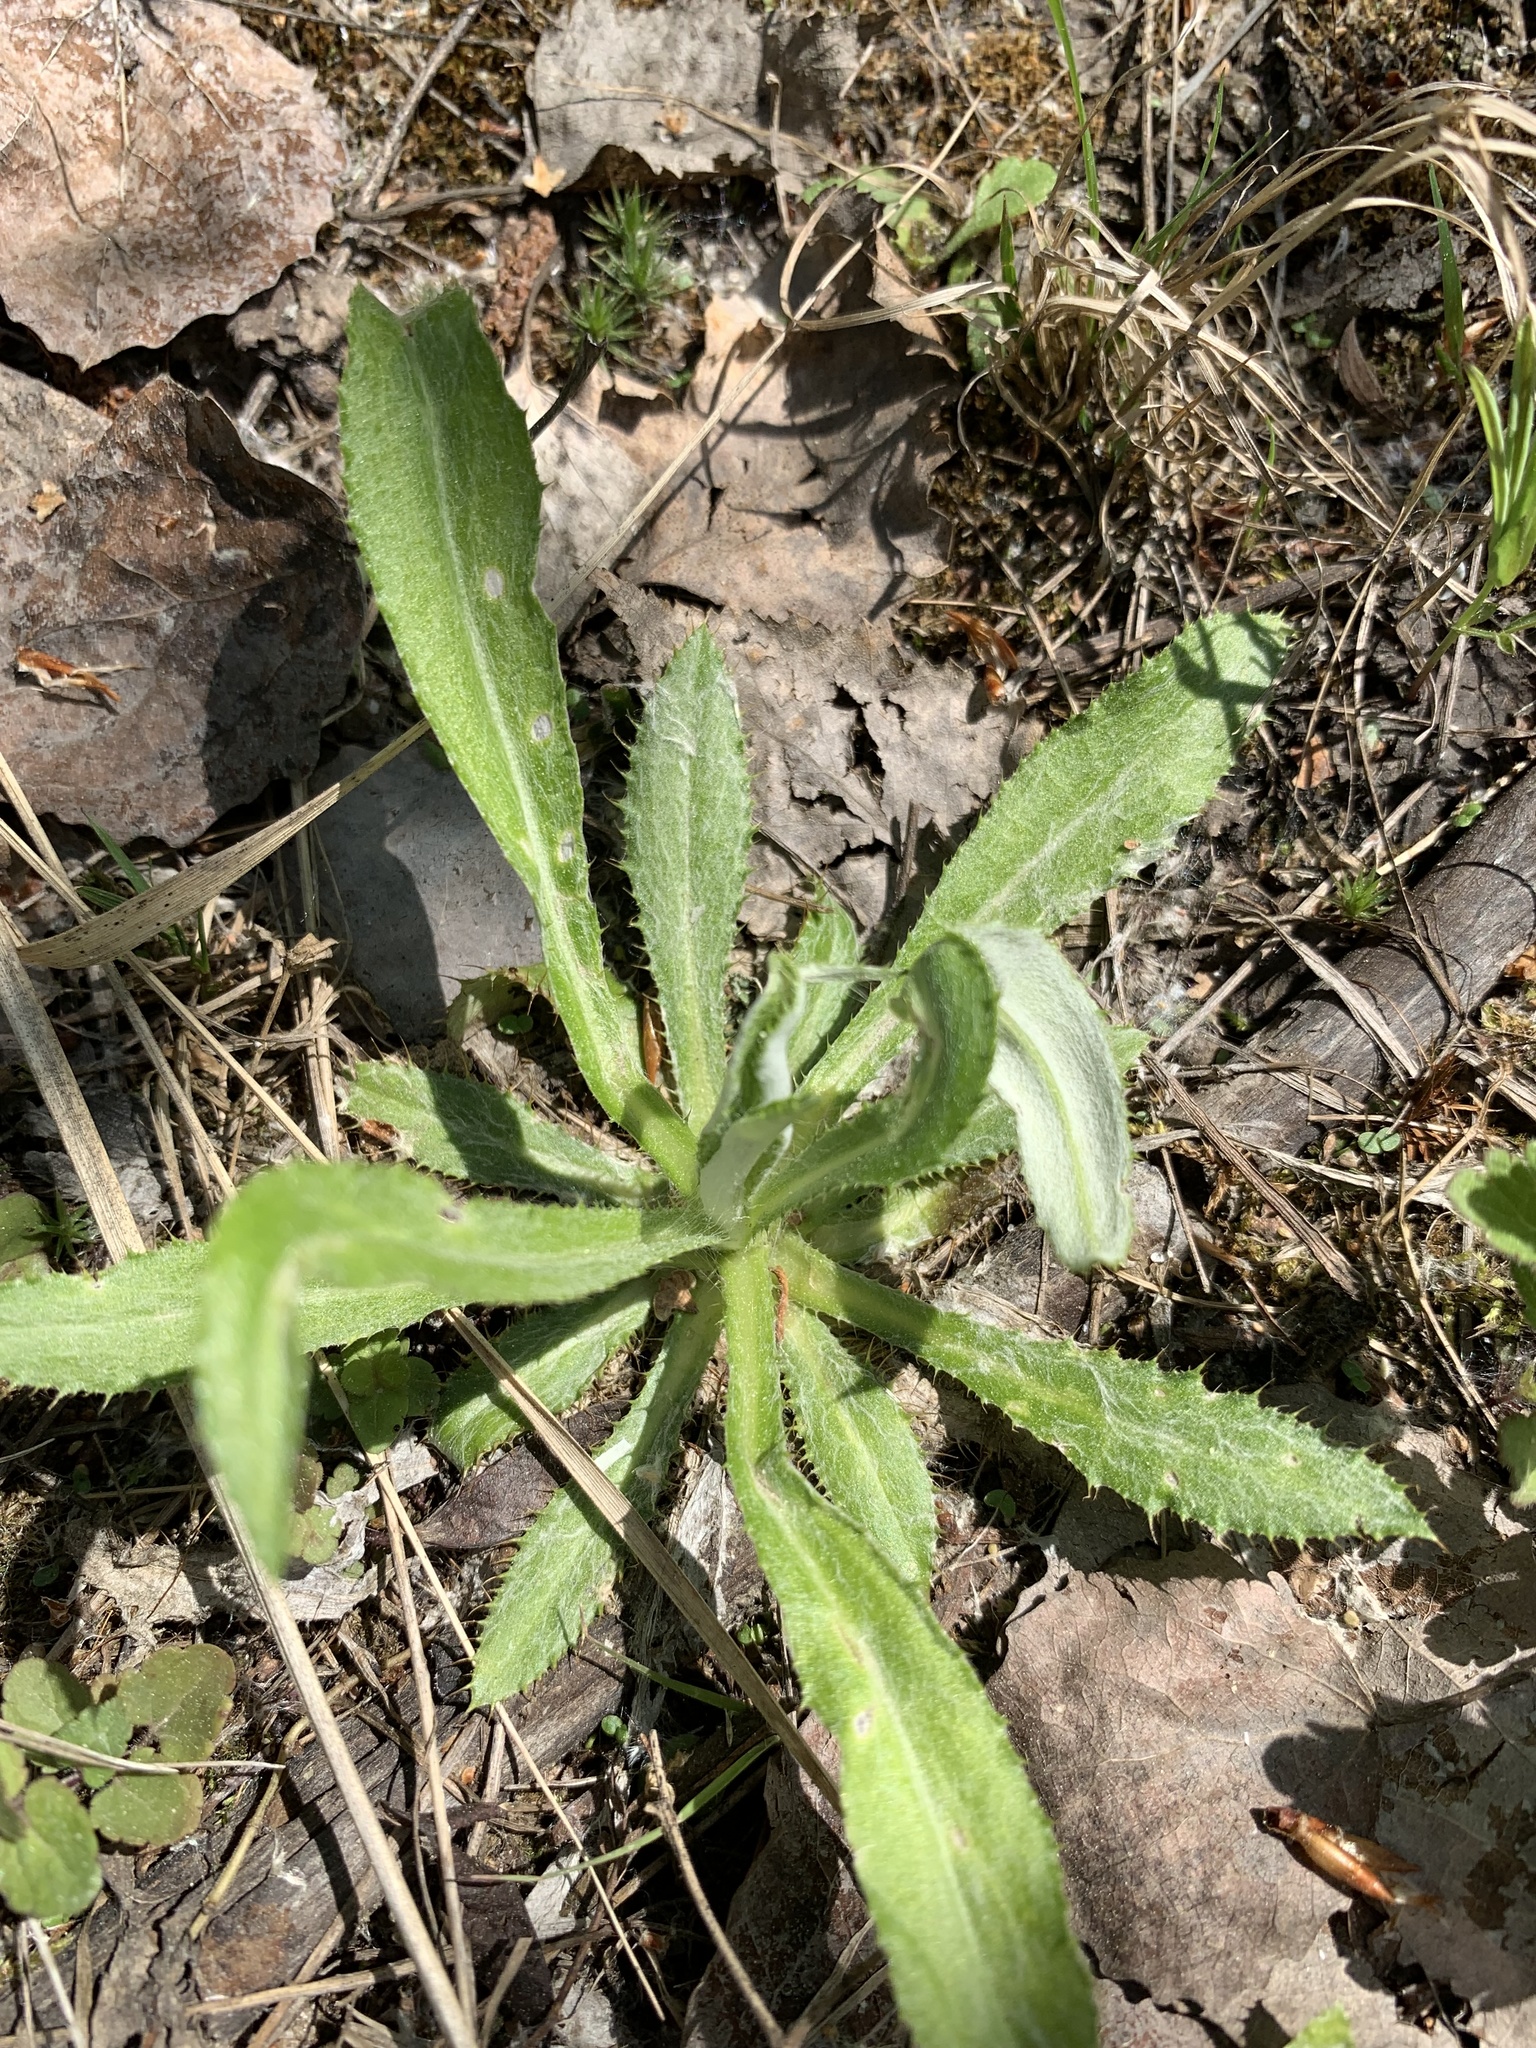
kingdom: Plantae
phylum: Tracheophyta
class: Magnoliopsida
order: Asterales
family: Asteraceae
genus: Carlina
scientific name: Carlina biebersteinii
